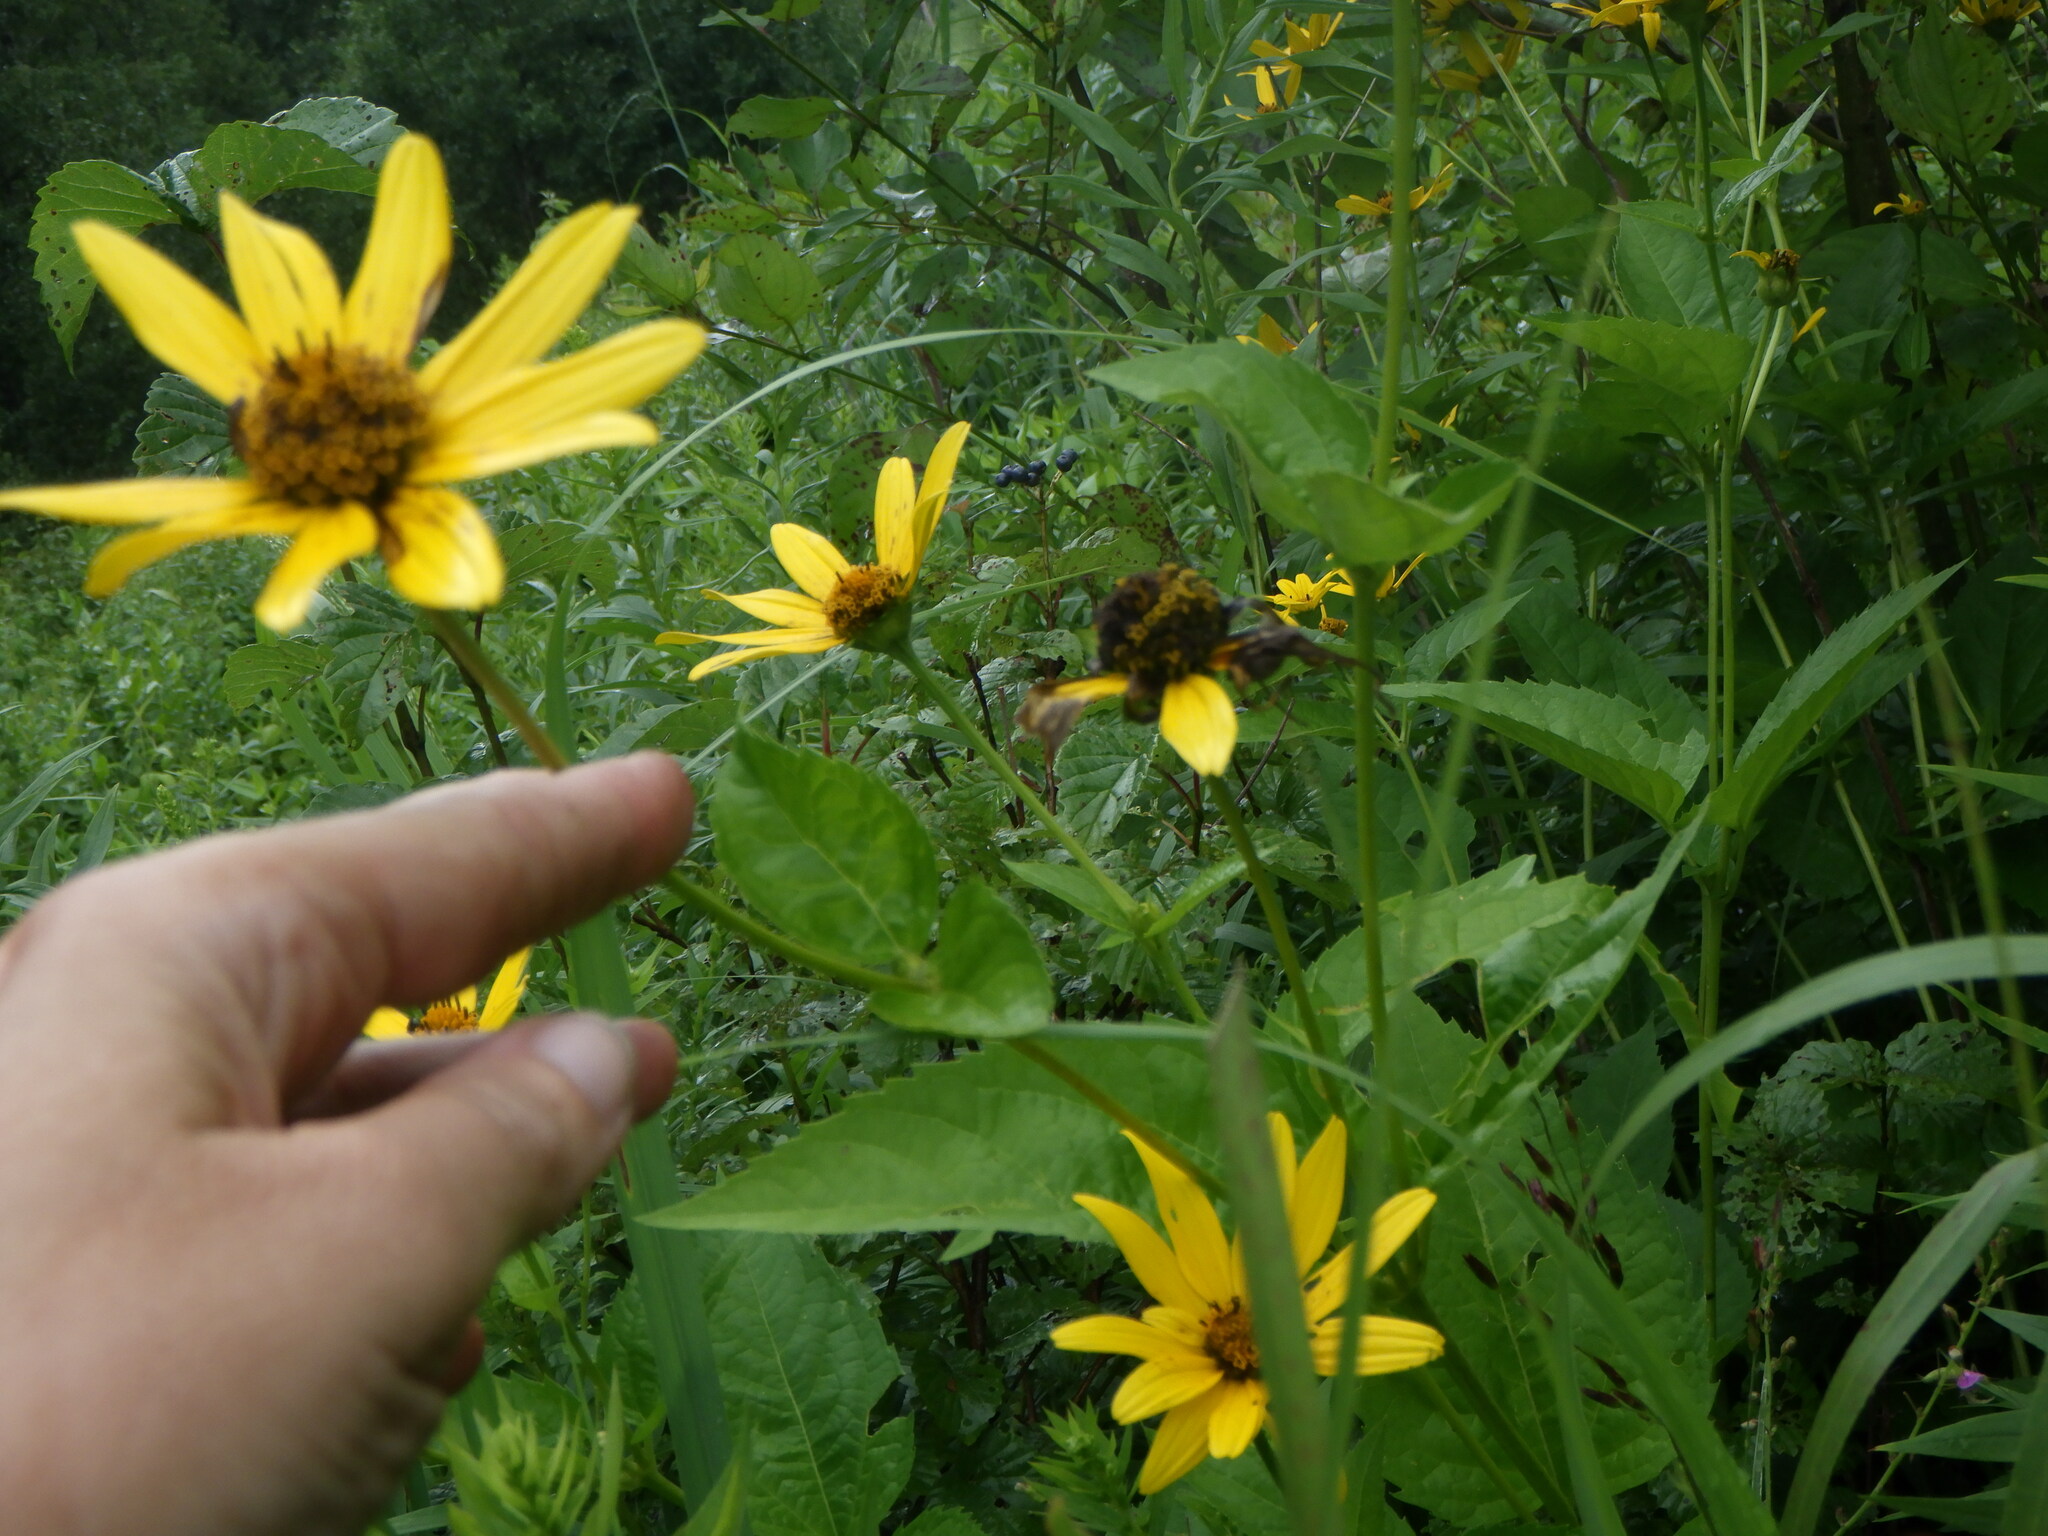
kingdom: Plantae
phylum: Tracheophyta
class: Magnoliopsida
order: Asterales
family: Asteraceae
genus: Heliopsis
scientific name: Heliopsis helianthoides
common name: False sunflower
